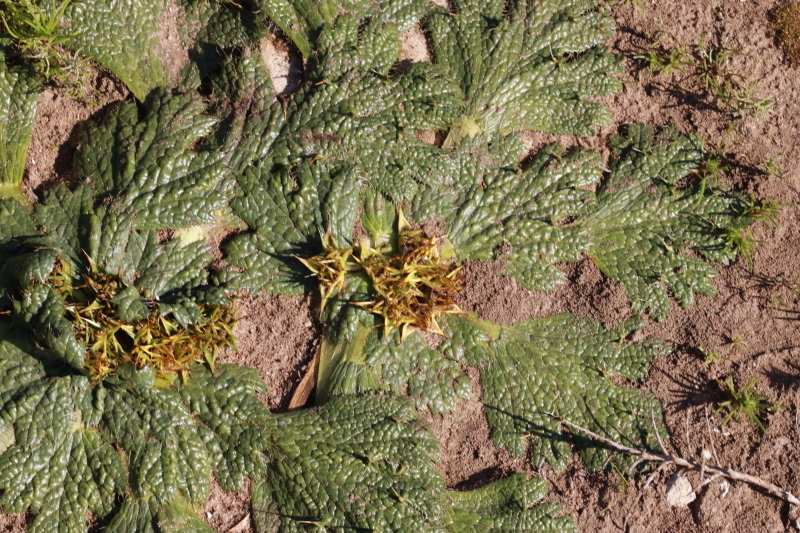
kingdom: Plantae
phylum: Tracheophyta
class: Magnoliopsida
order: Apiales
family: Apiaceae
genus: Arctopus
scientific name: Arctopus echinatus
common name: Platdoring
